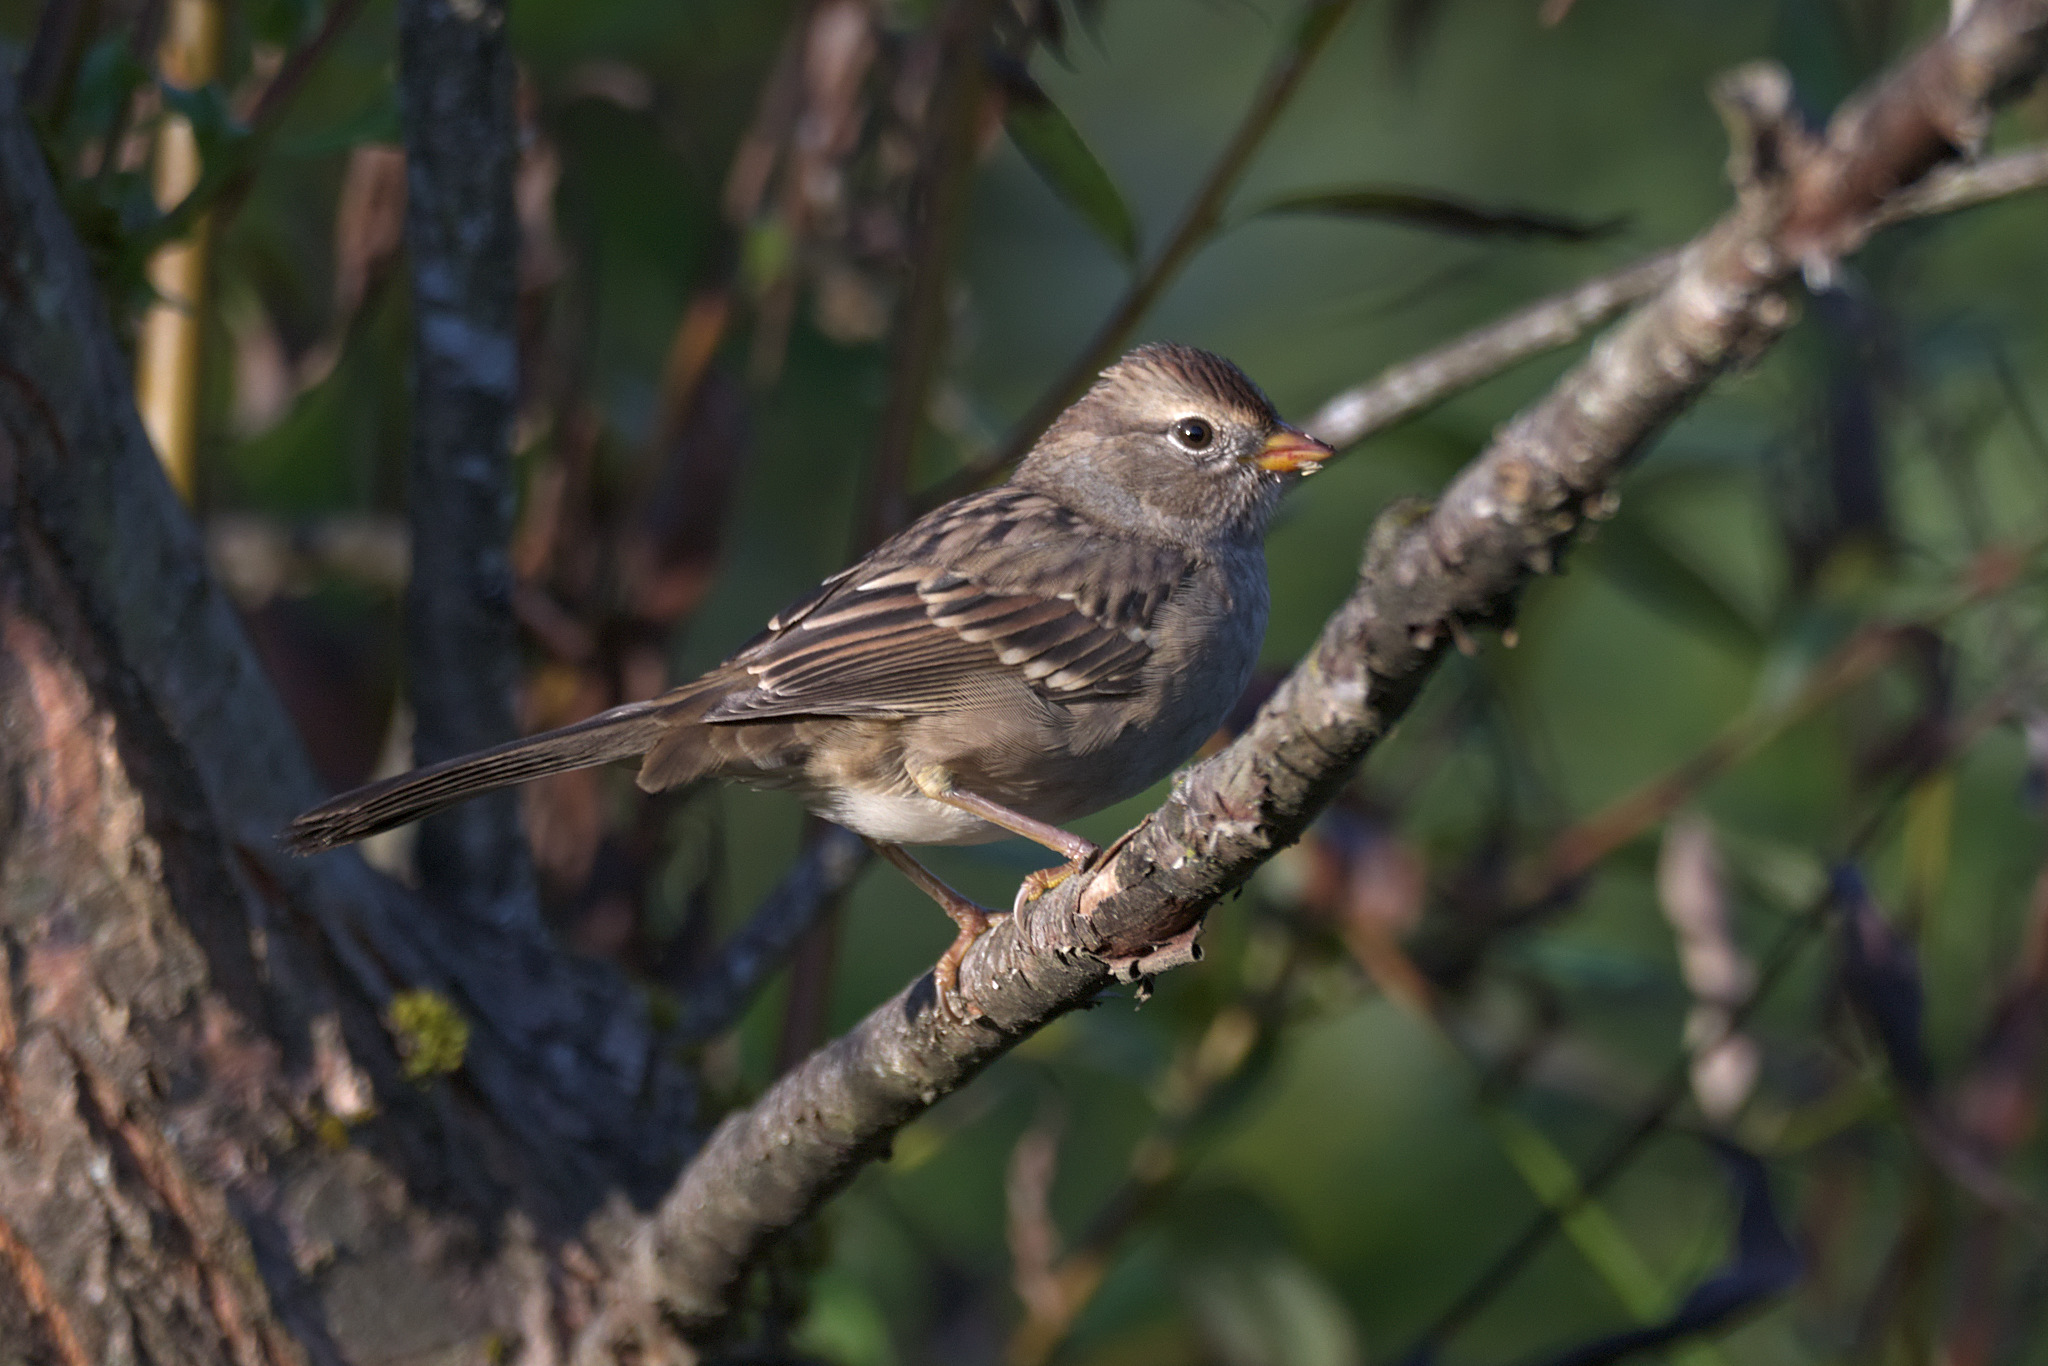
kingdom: Animalia
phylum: Chordata
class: Aves
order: Passeriformes
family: Passerellidae
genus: Zonotrichia
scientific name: Zonotrichia leucophrys
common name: White-crowned sparrow
